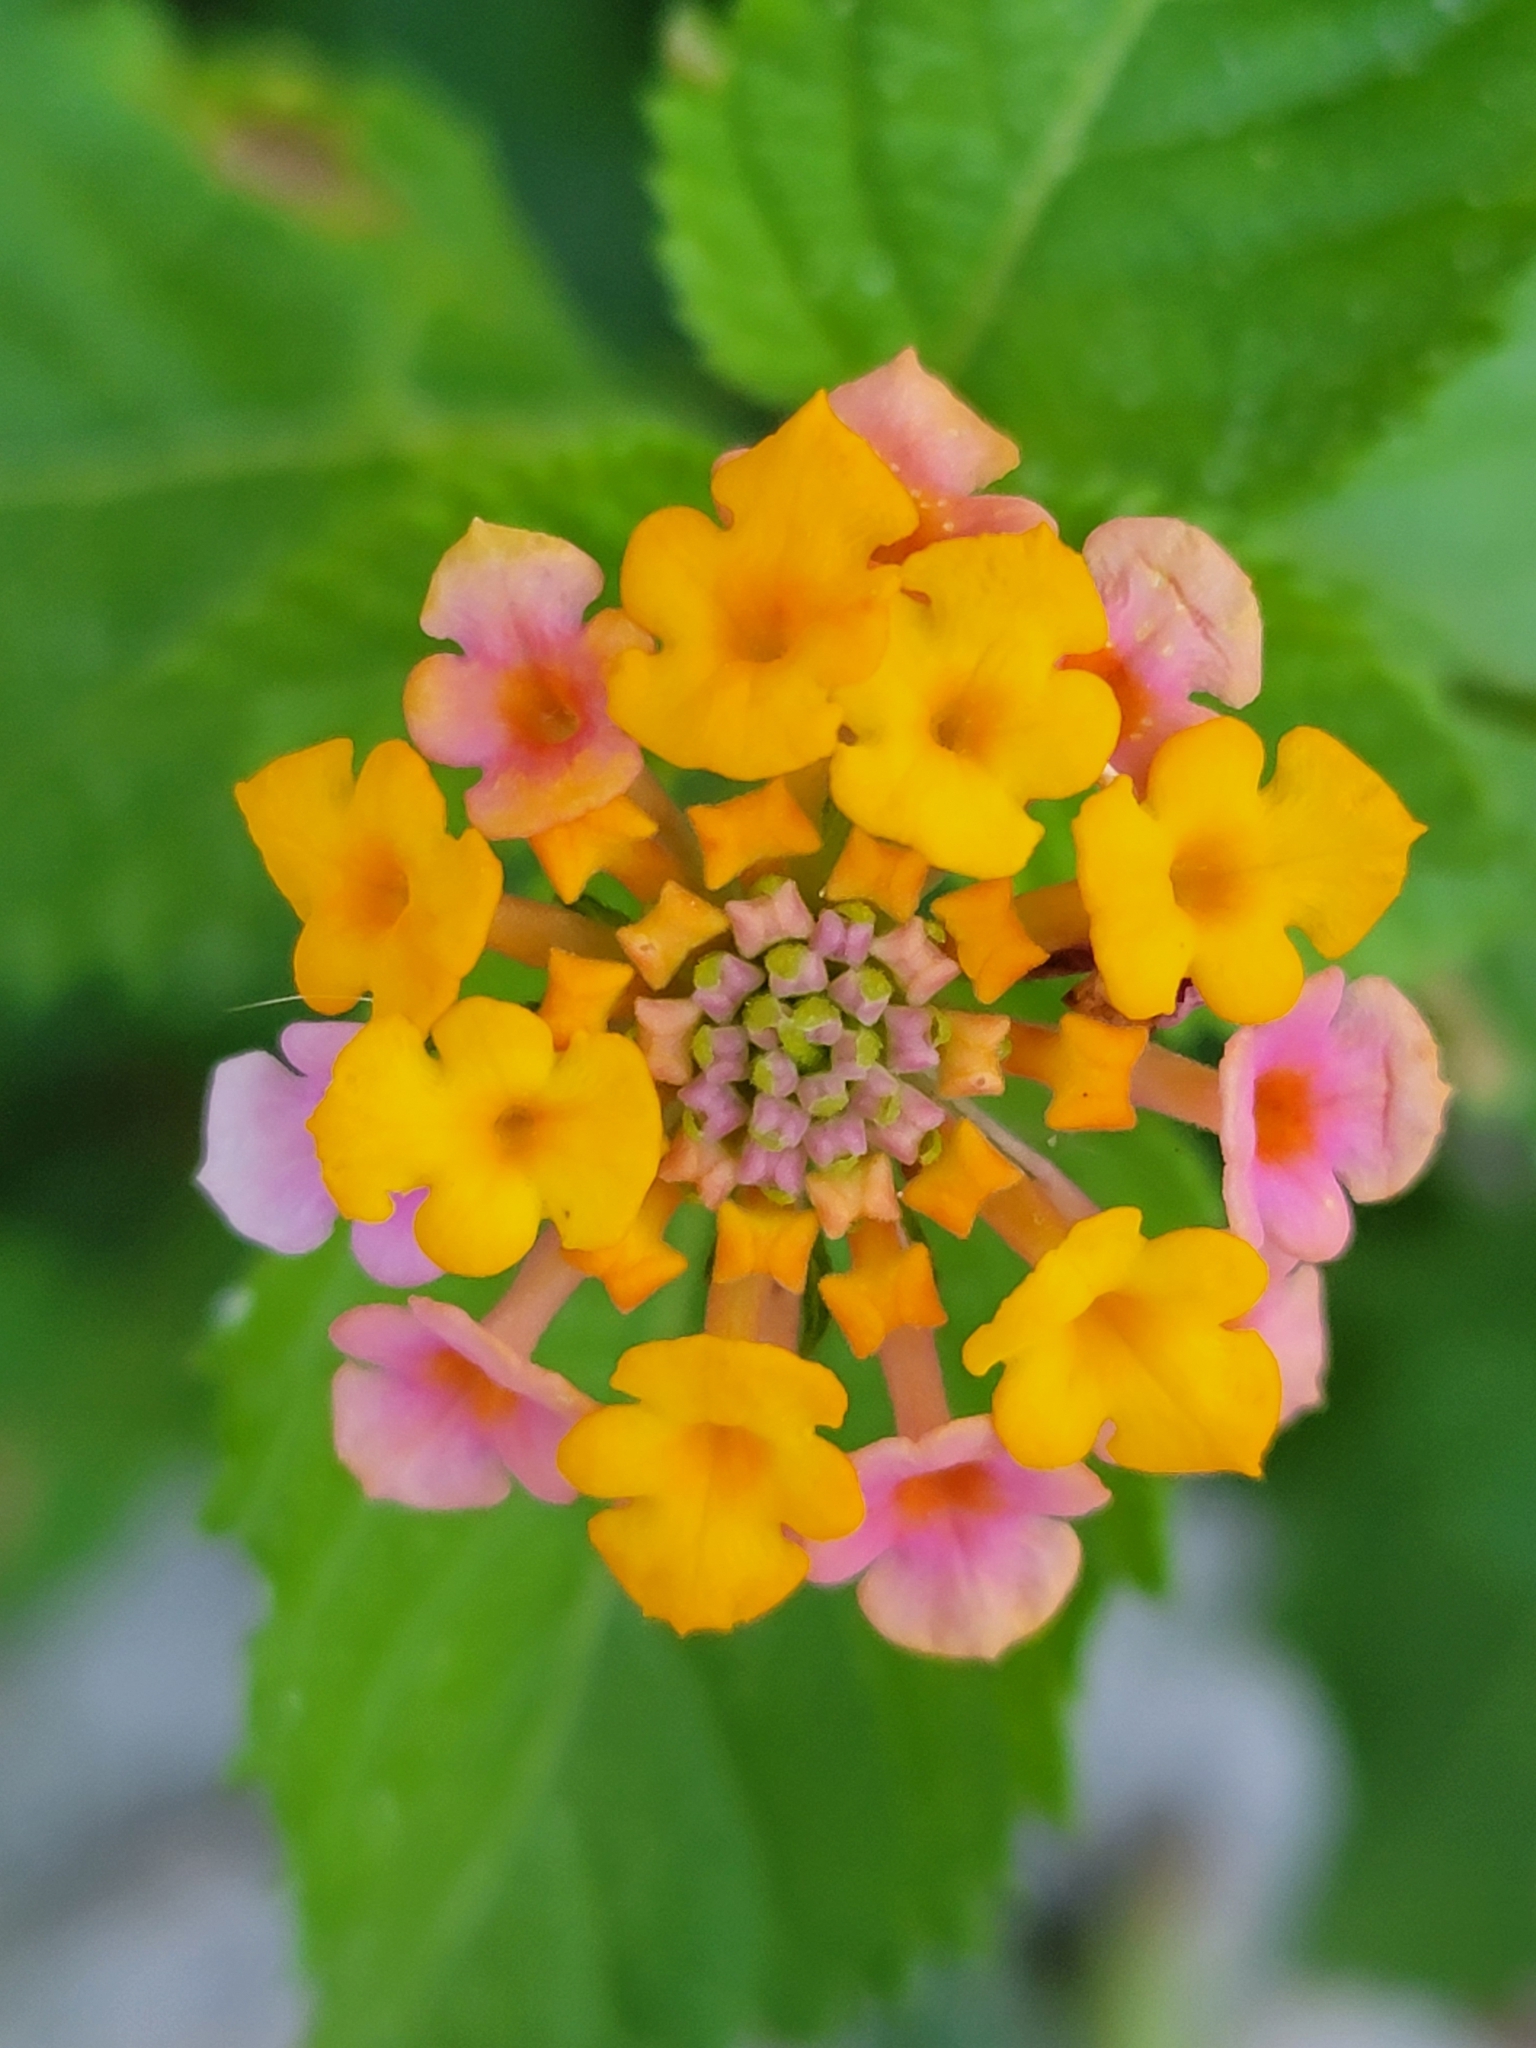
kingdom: Plantae
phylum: Tracheophyta
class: Magnoliopsida
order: Lamiales
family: Verbenaceae
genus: Lantana
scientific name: Lantana strigocamara
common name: Lantana
